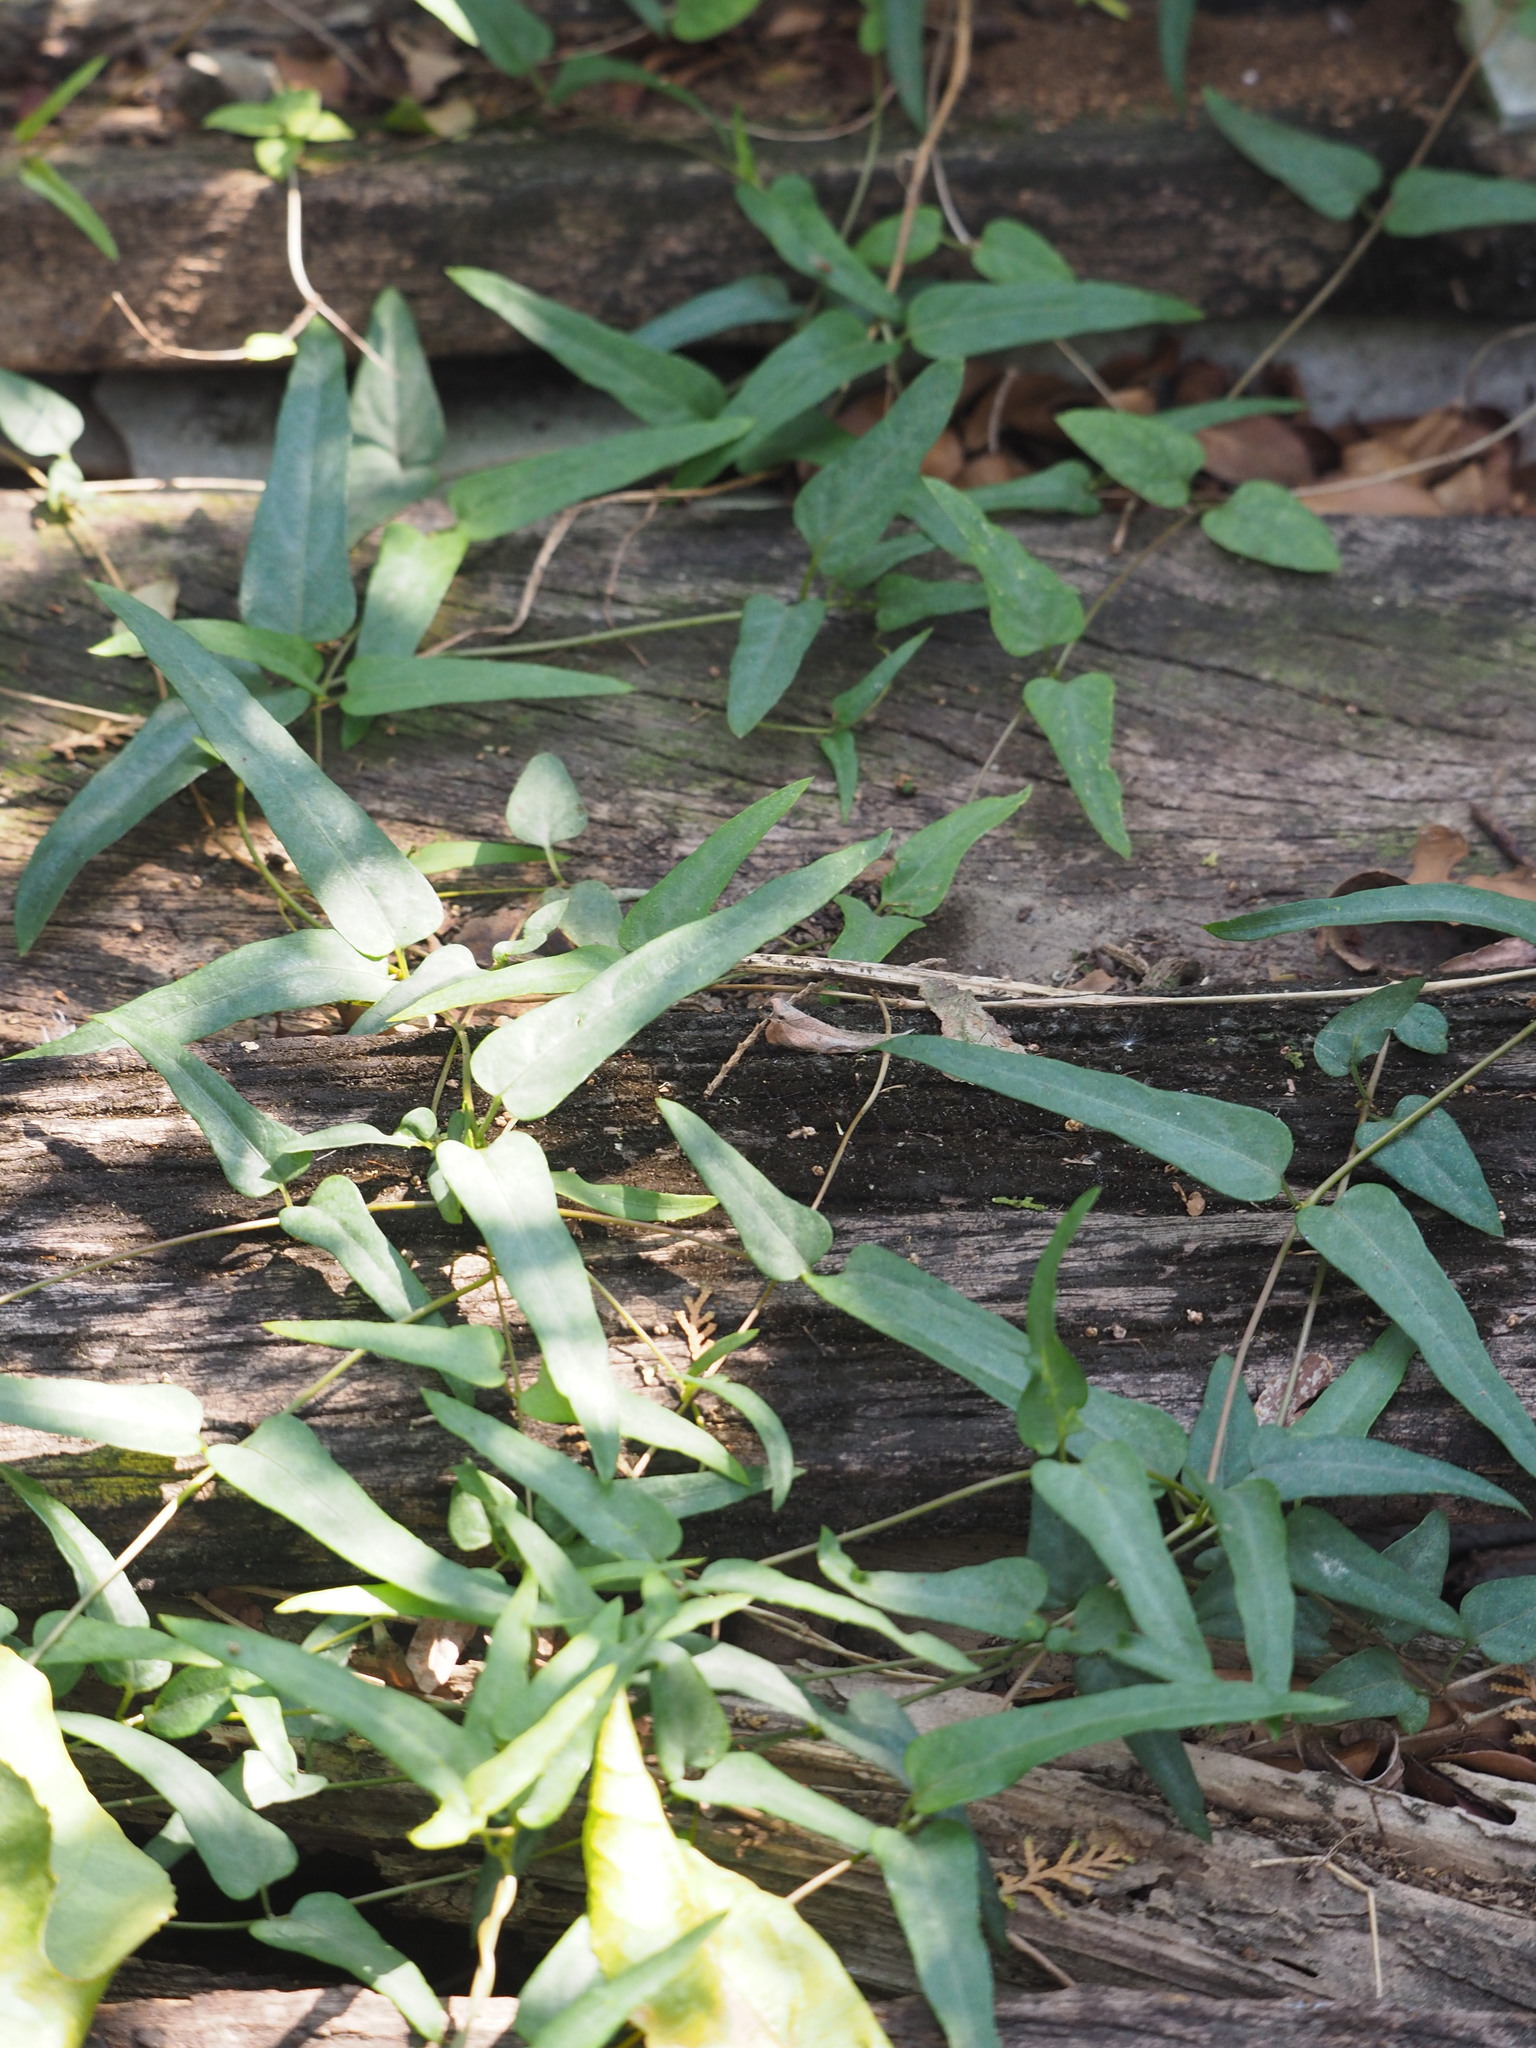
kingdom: Plantae
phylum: Tracheophyta
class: Magnoliopsida
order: Gentianales
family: Rubiaceae
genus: Paederia
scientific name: Paederia foetida
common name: Stinkvine
